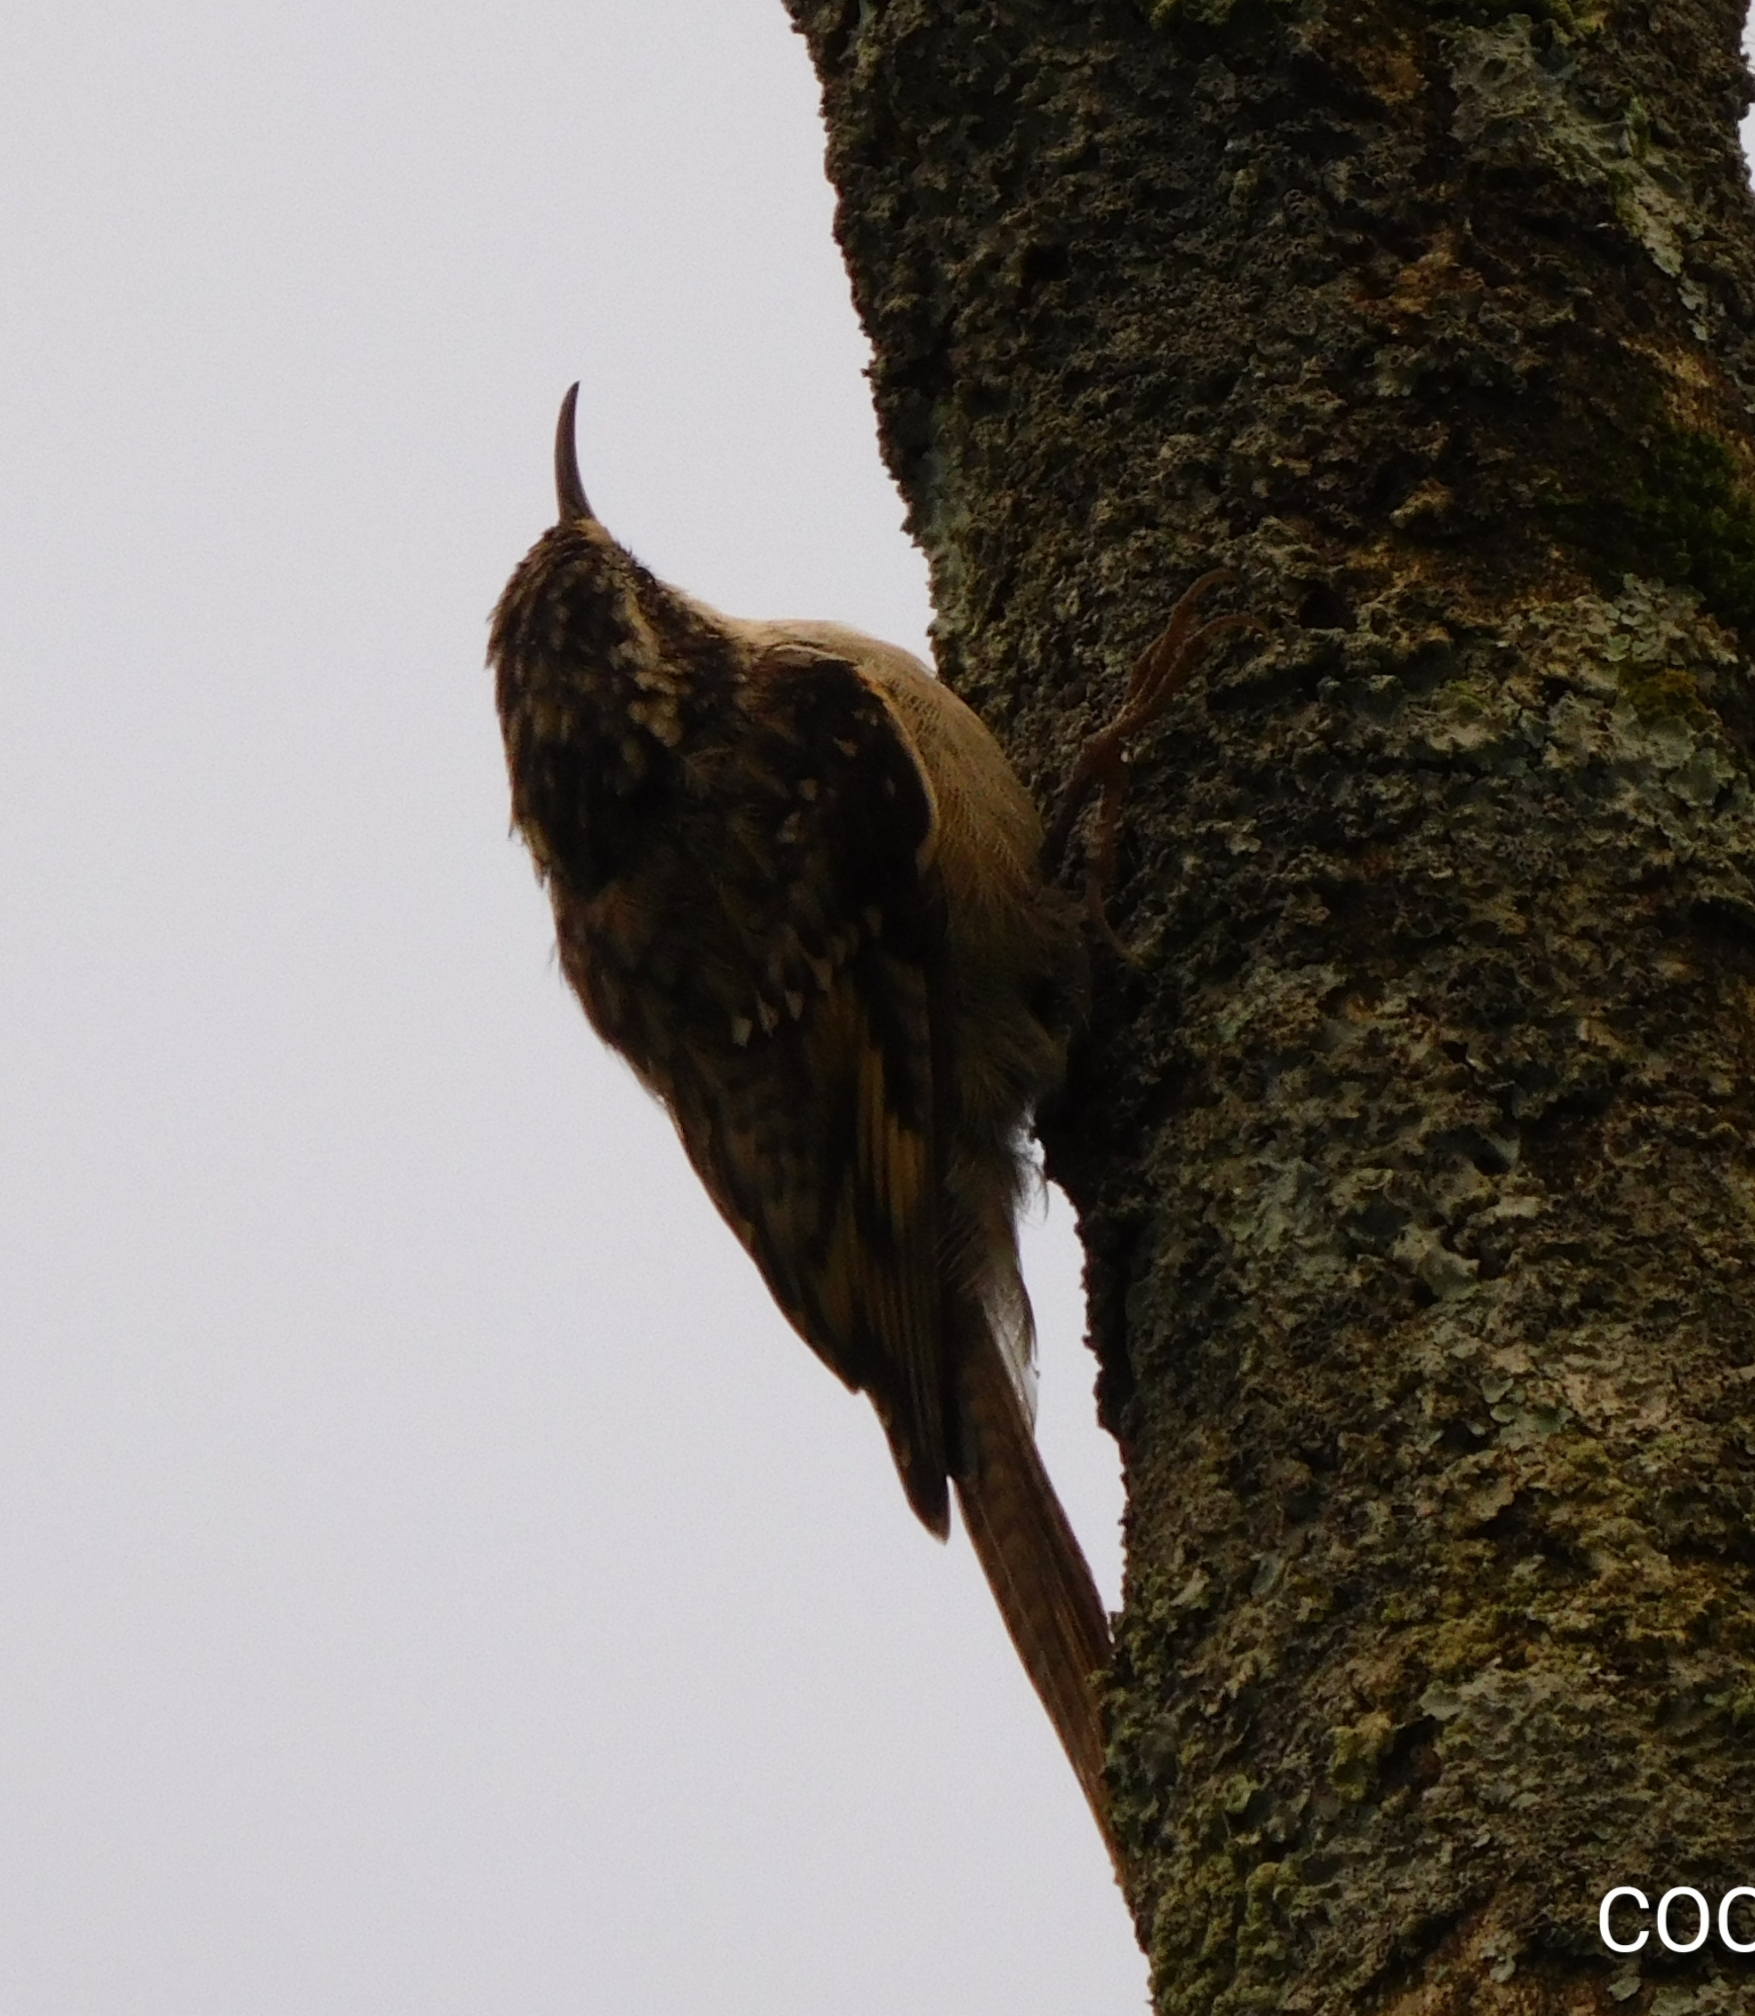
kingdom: Animalia
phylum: Chordata
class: Aves
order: Passeriformes
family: Certhiidae
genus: Certhia
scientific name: Certhia himalayana
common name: Bar-tailed treecreeper
